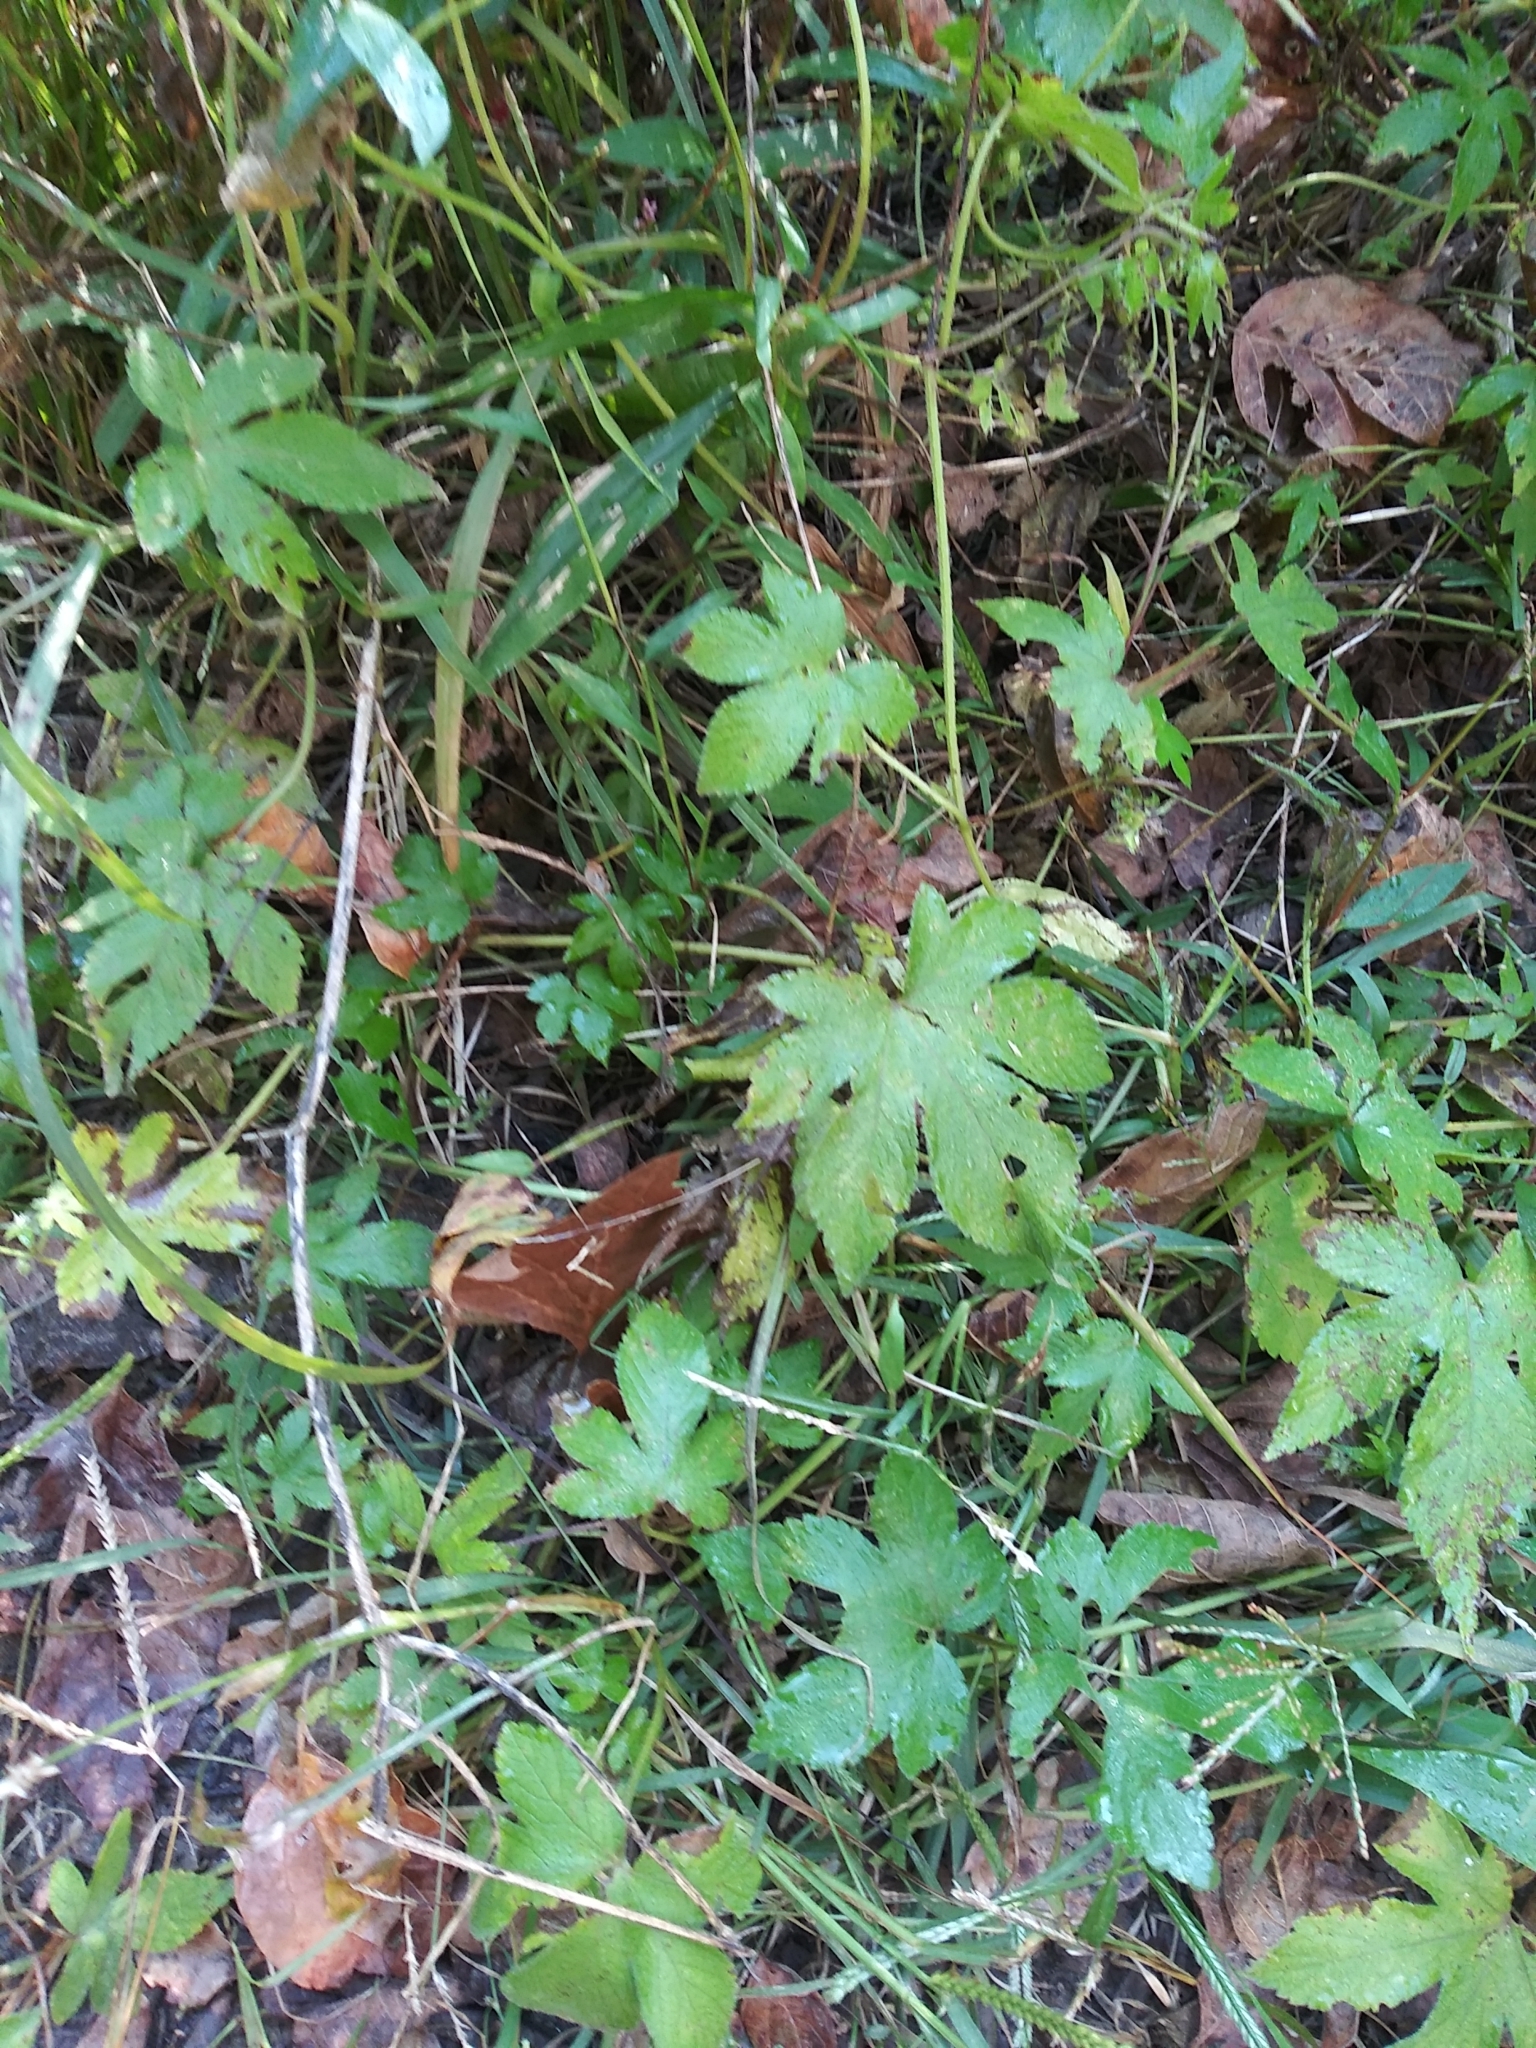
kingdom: Plantae
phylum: Tracheophyta
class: Magnoliopsida
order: Rosales
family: Cannabaceae
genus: Humulus
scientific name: Humulus scandens
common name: Japanese hop
